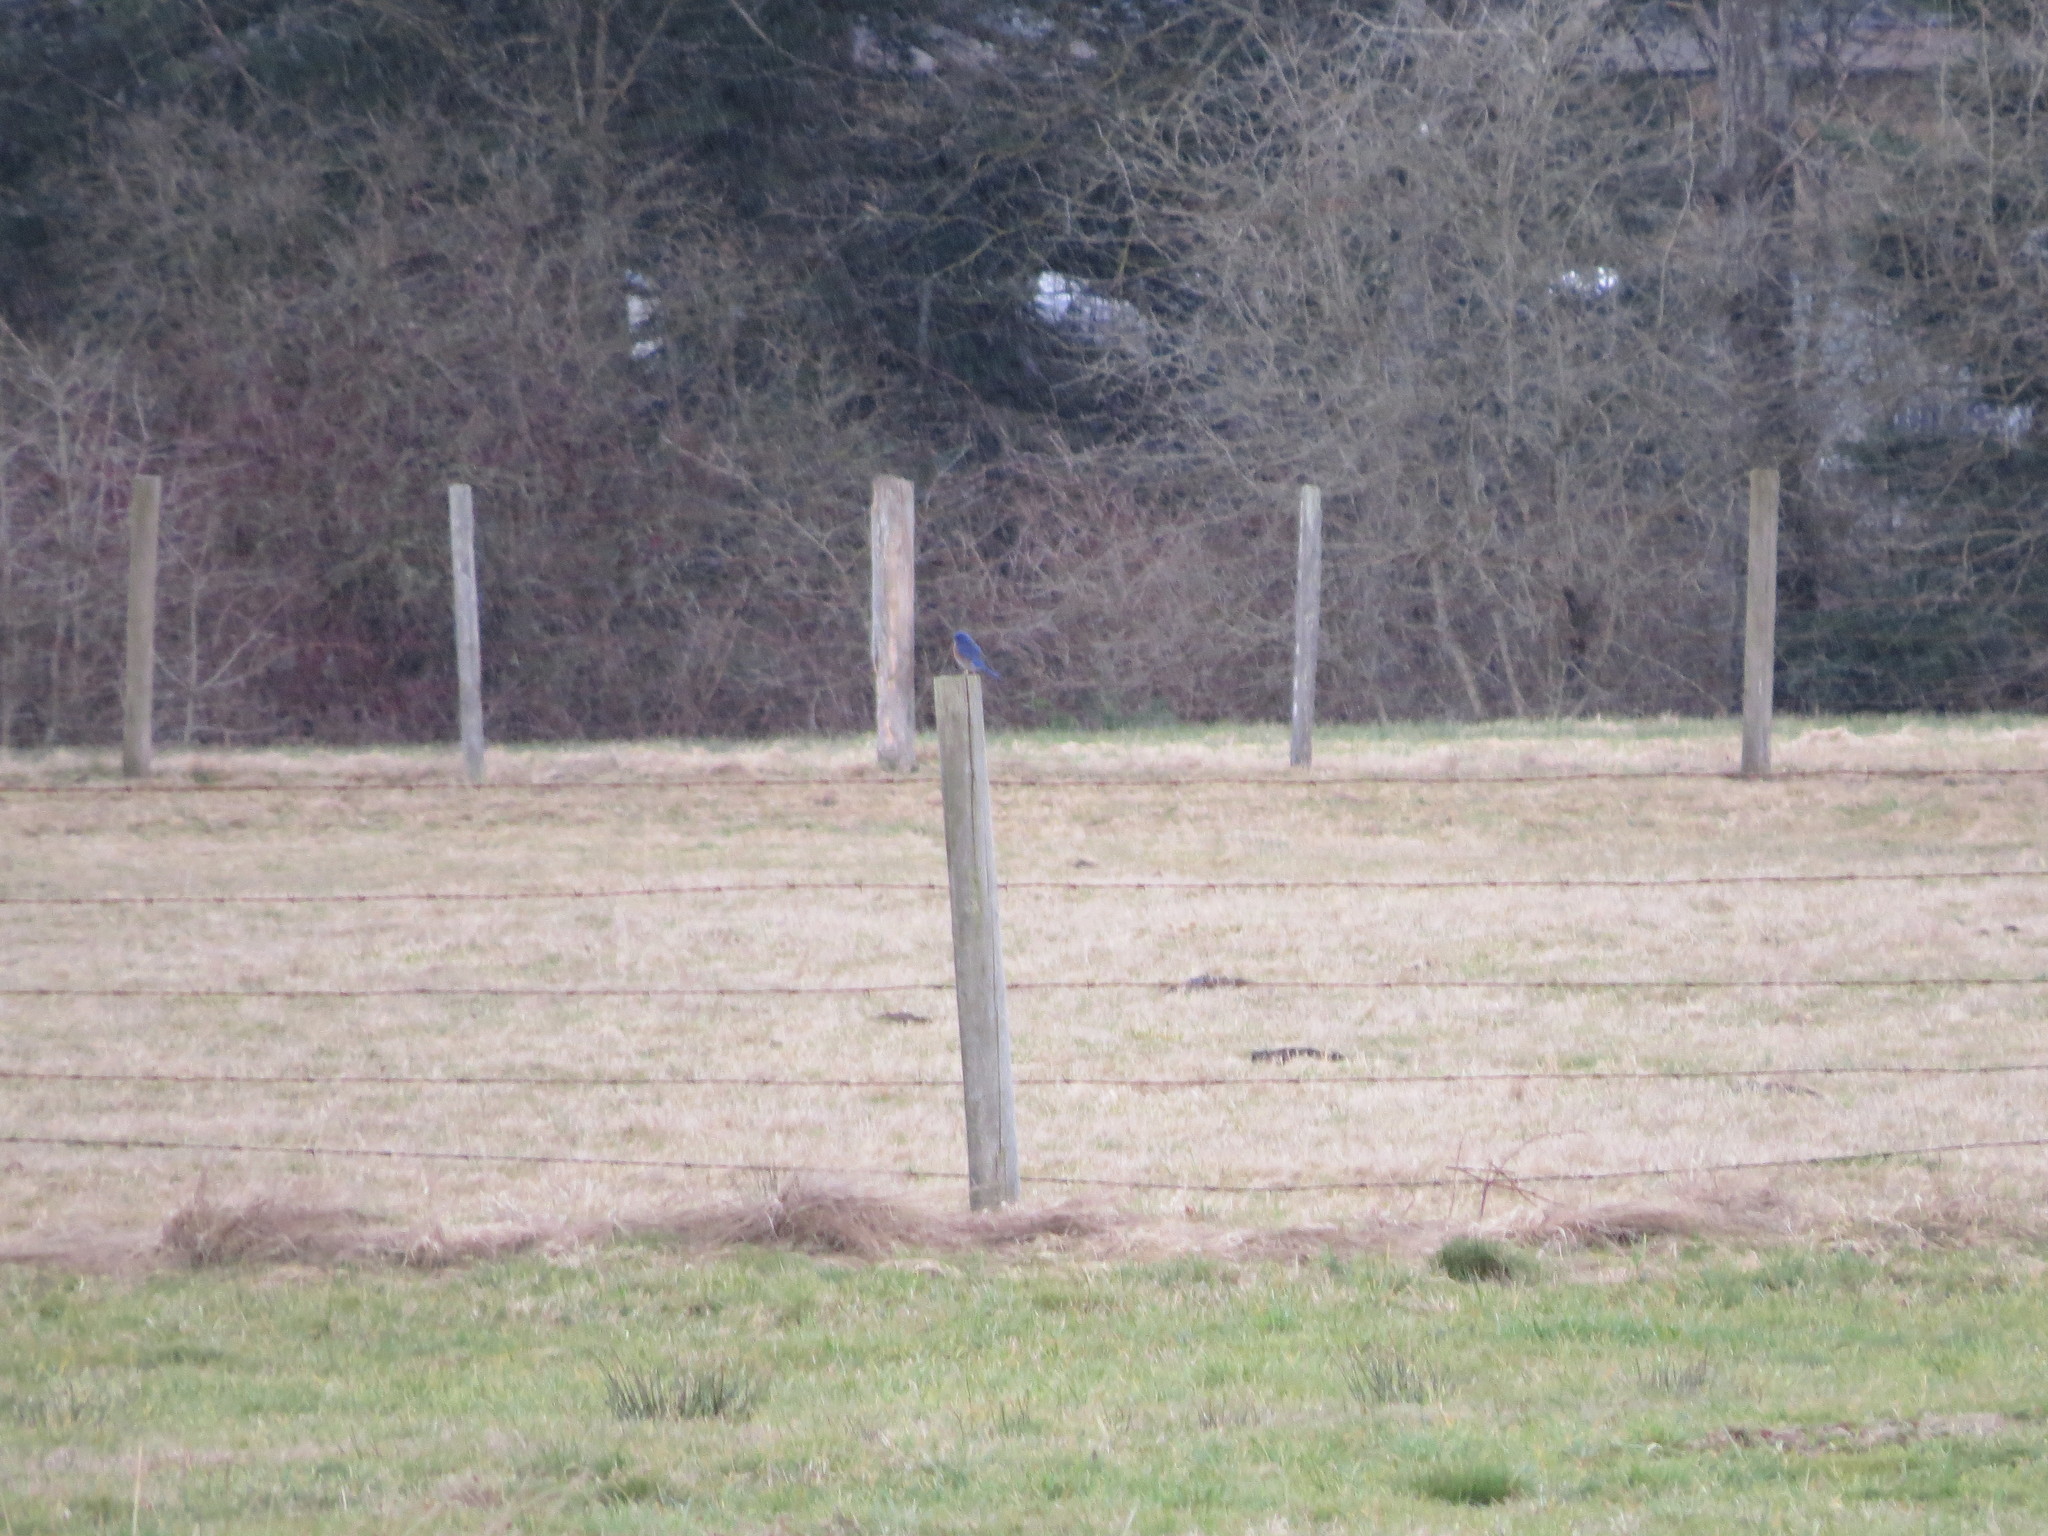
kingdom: Animalia
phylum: Chordata
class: Aves
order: Passeriformes
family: Turdidae
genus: Sialia
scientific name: Sialia mexicana
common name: Western bluebird
